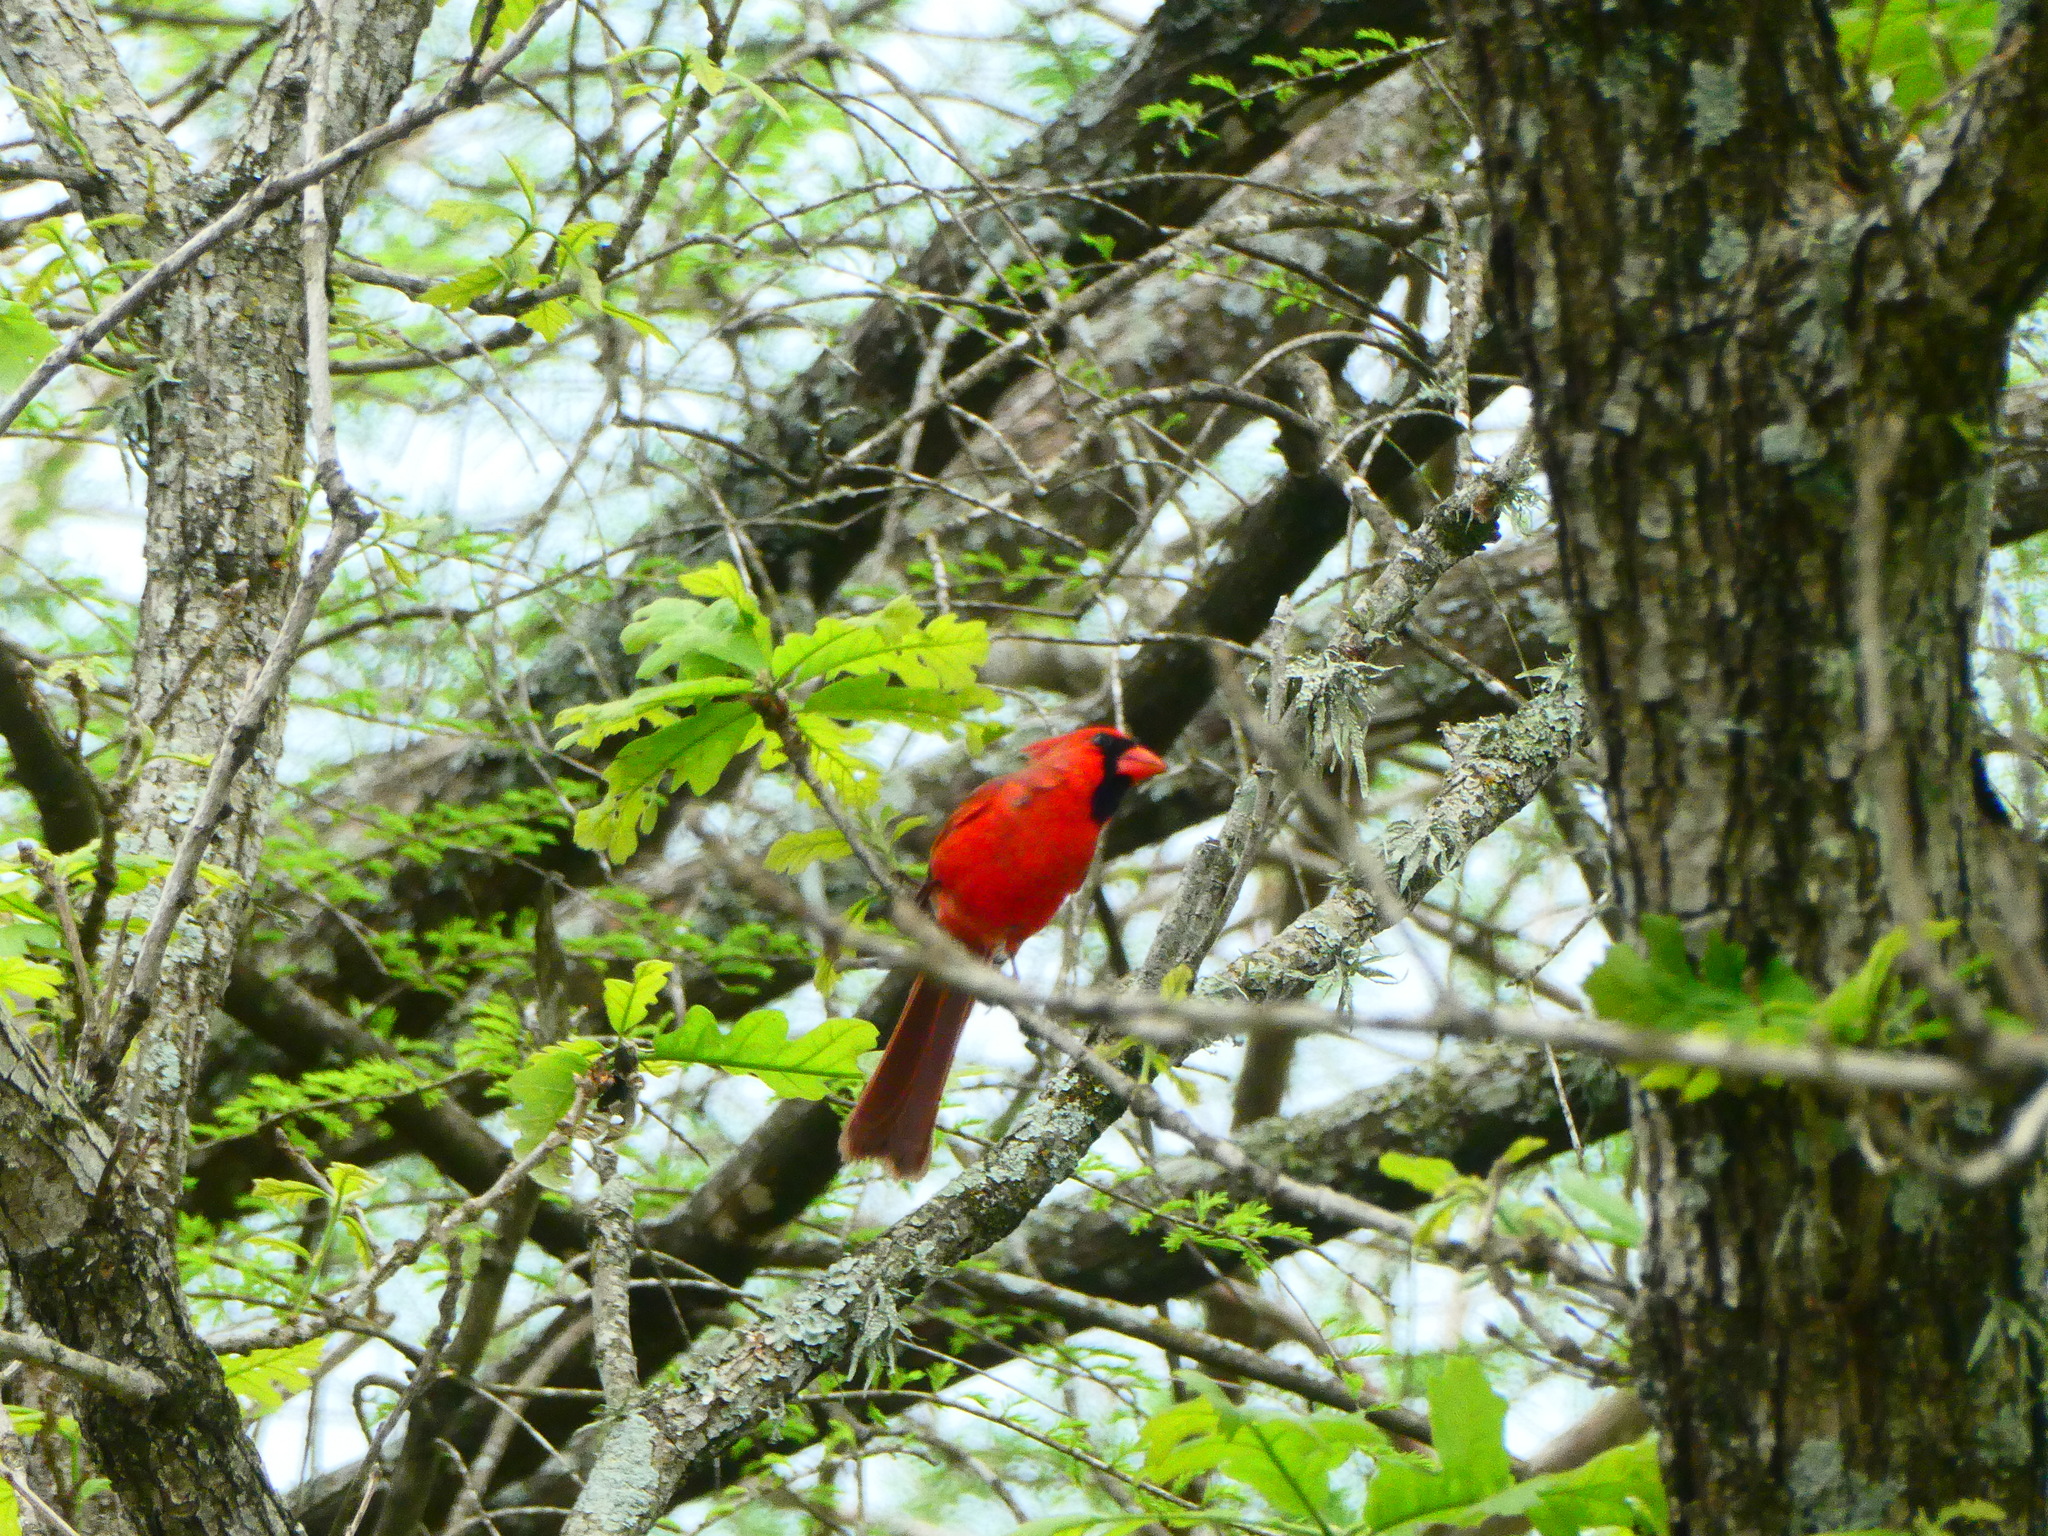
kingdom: Animalia
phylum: Chordata
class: Aves
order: Passeriformes
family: Cardinalidae
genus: Cardinalis
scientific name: Cardinalis cardinalis
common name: Northern cardinal
